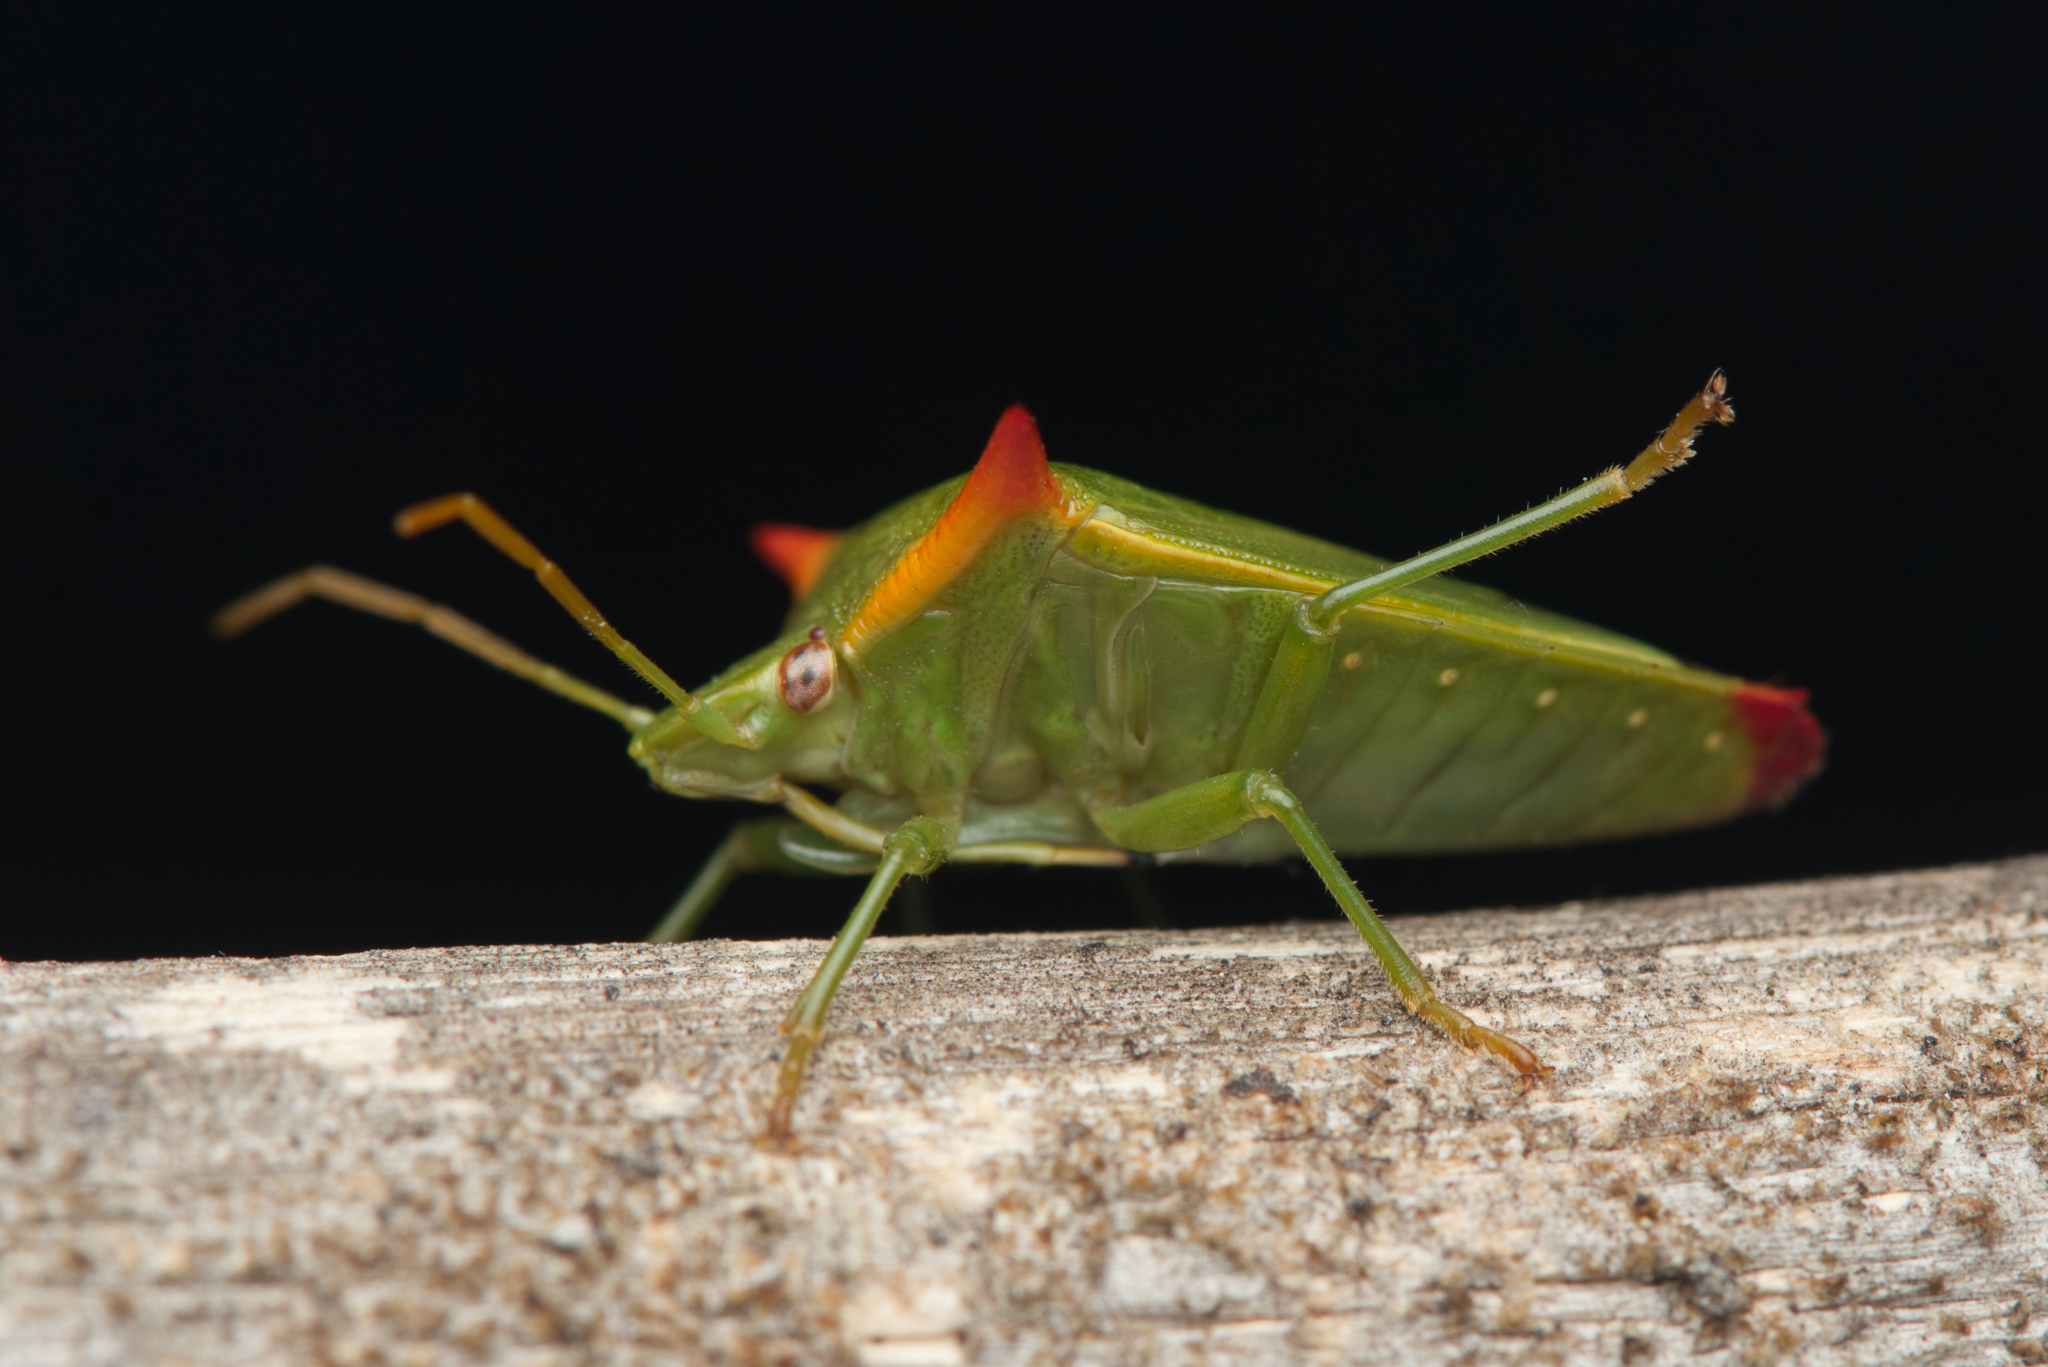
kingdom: Animalia
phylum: Arthropoda
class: Insecta
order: Hemiptera
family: Pentatomidae
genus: Avicenna
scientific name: Avicenna
